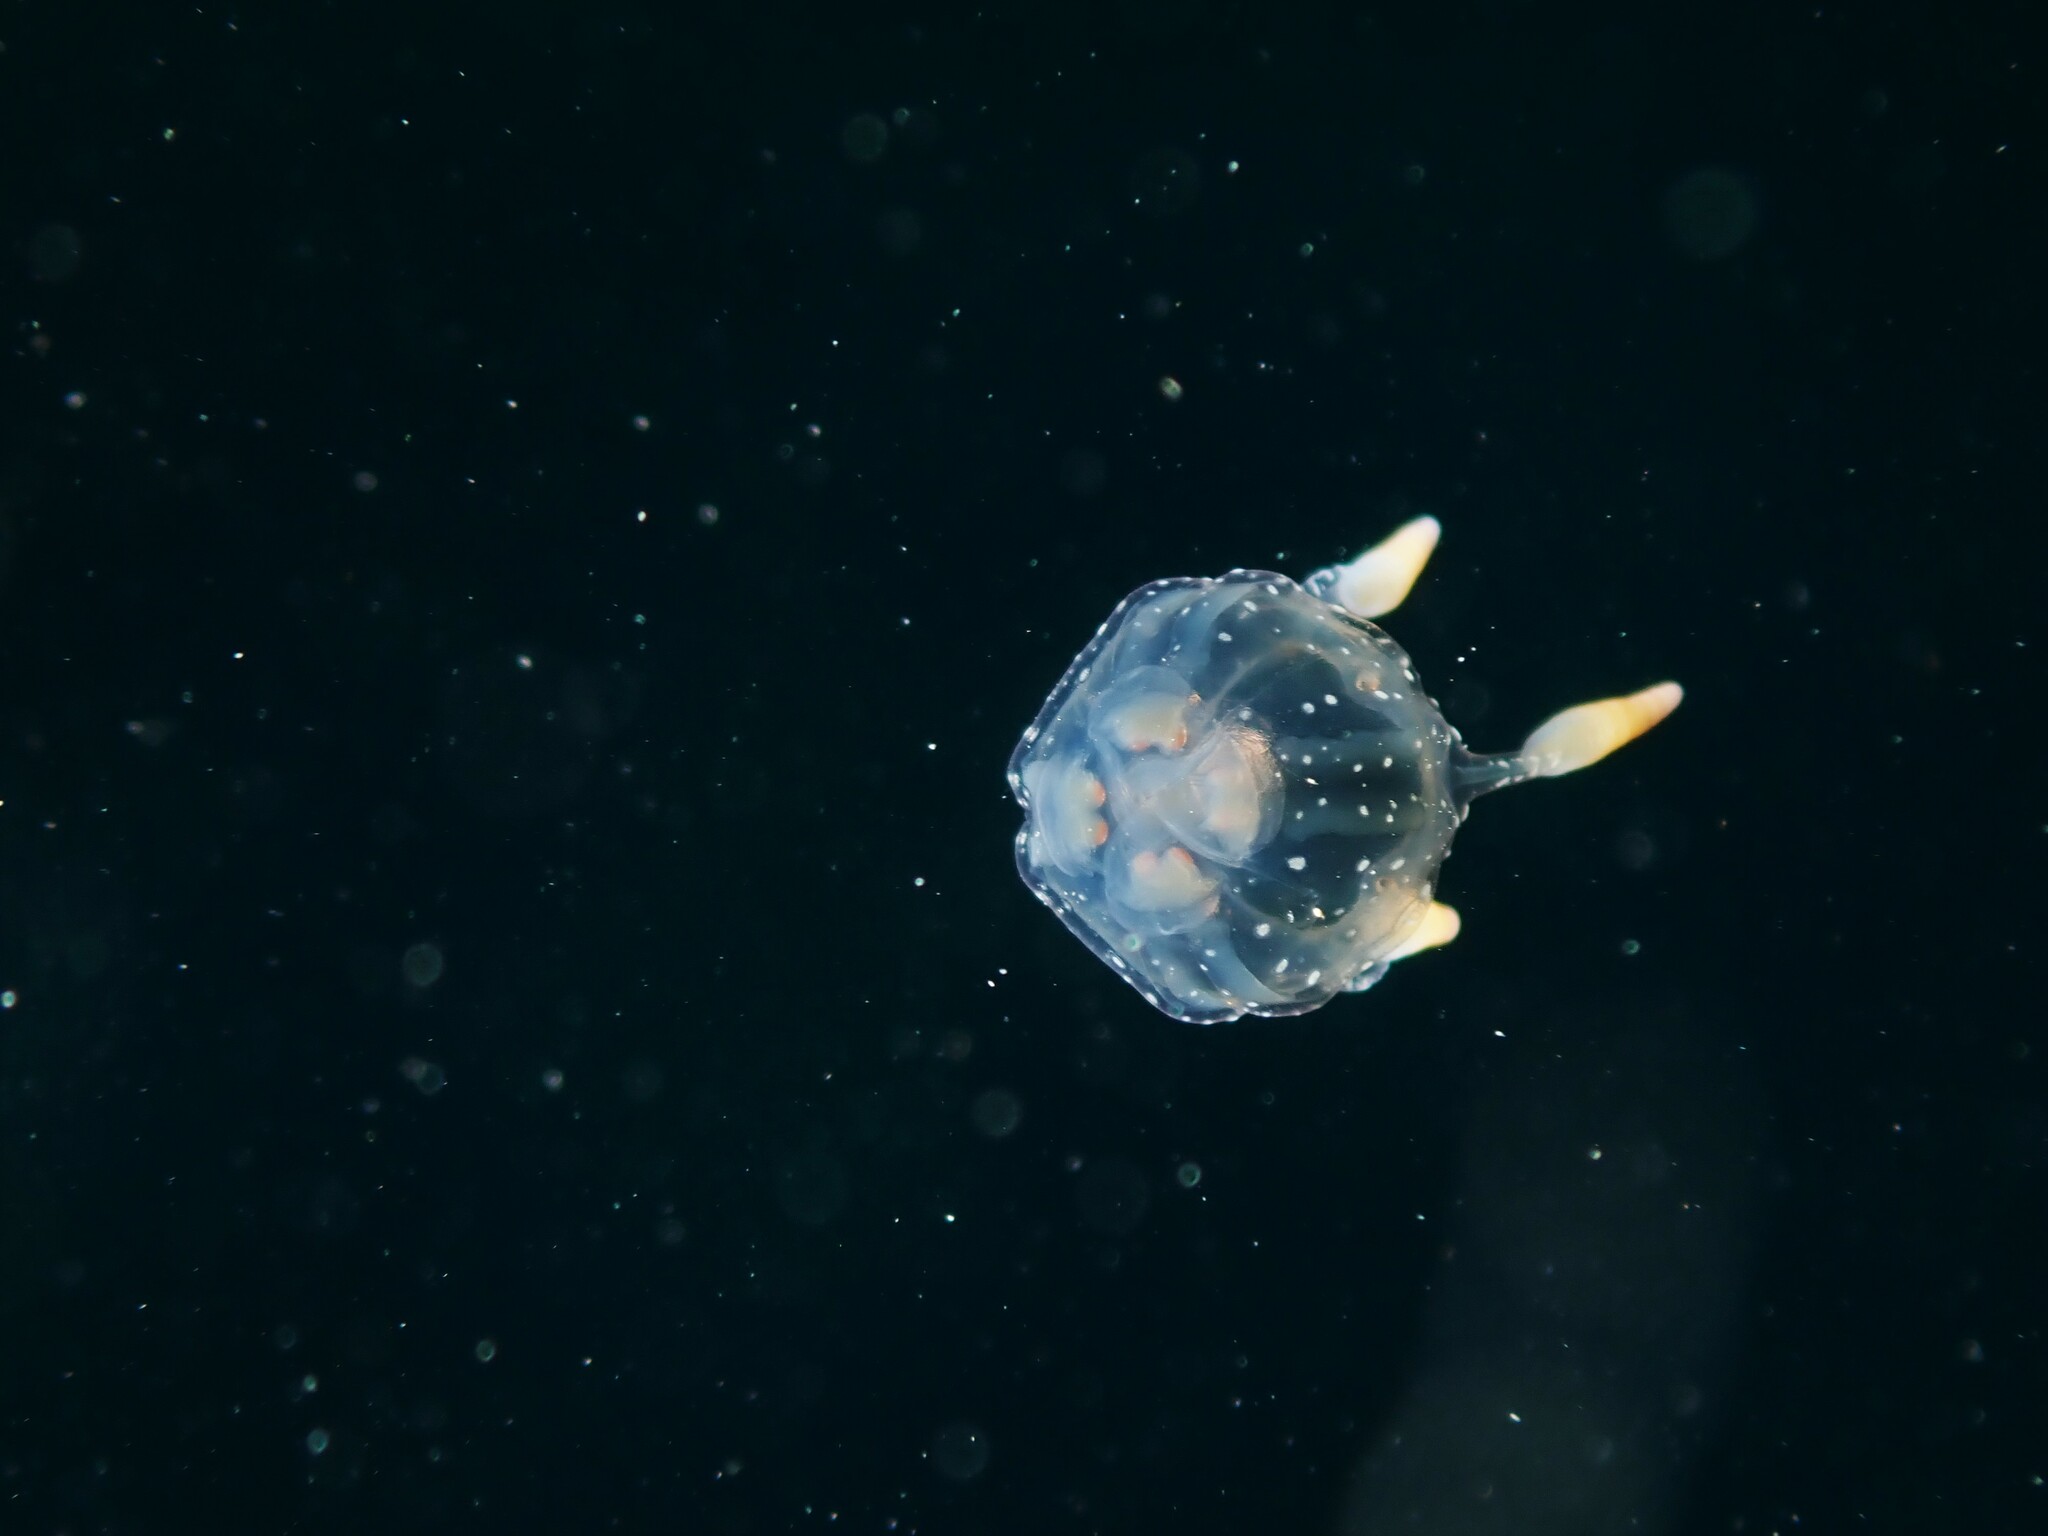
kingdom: Animalia
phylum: Cnidaria
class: Cubozoa
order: Carybdeida
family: Tripedaliidae
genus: Copula
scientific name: Copula sivickisi
